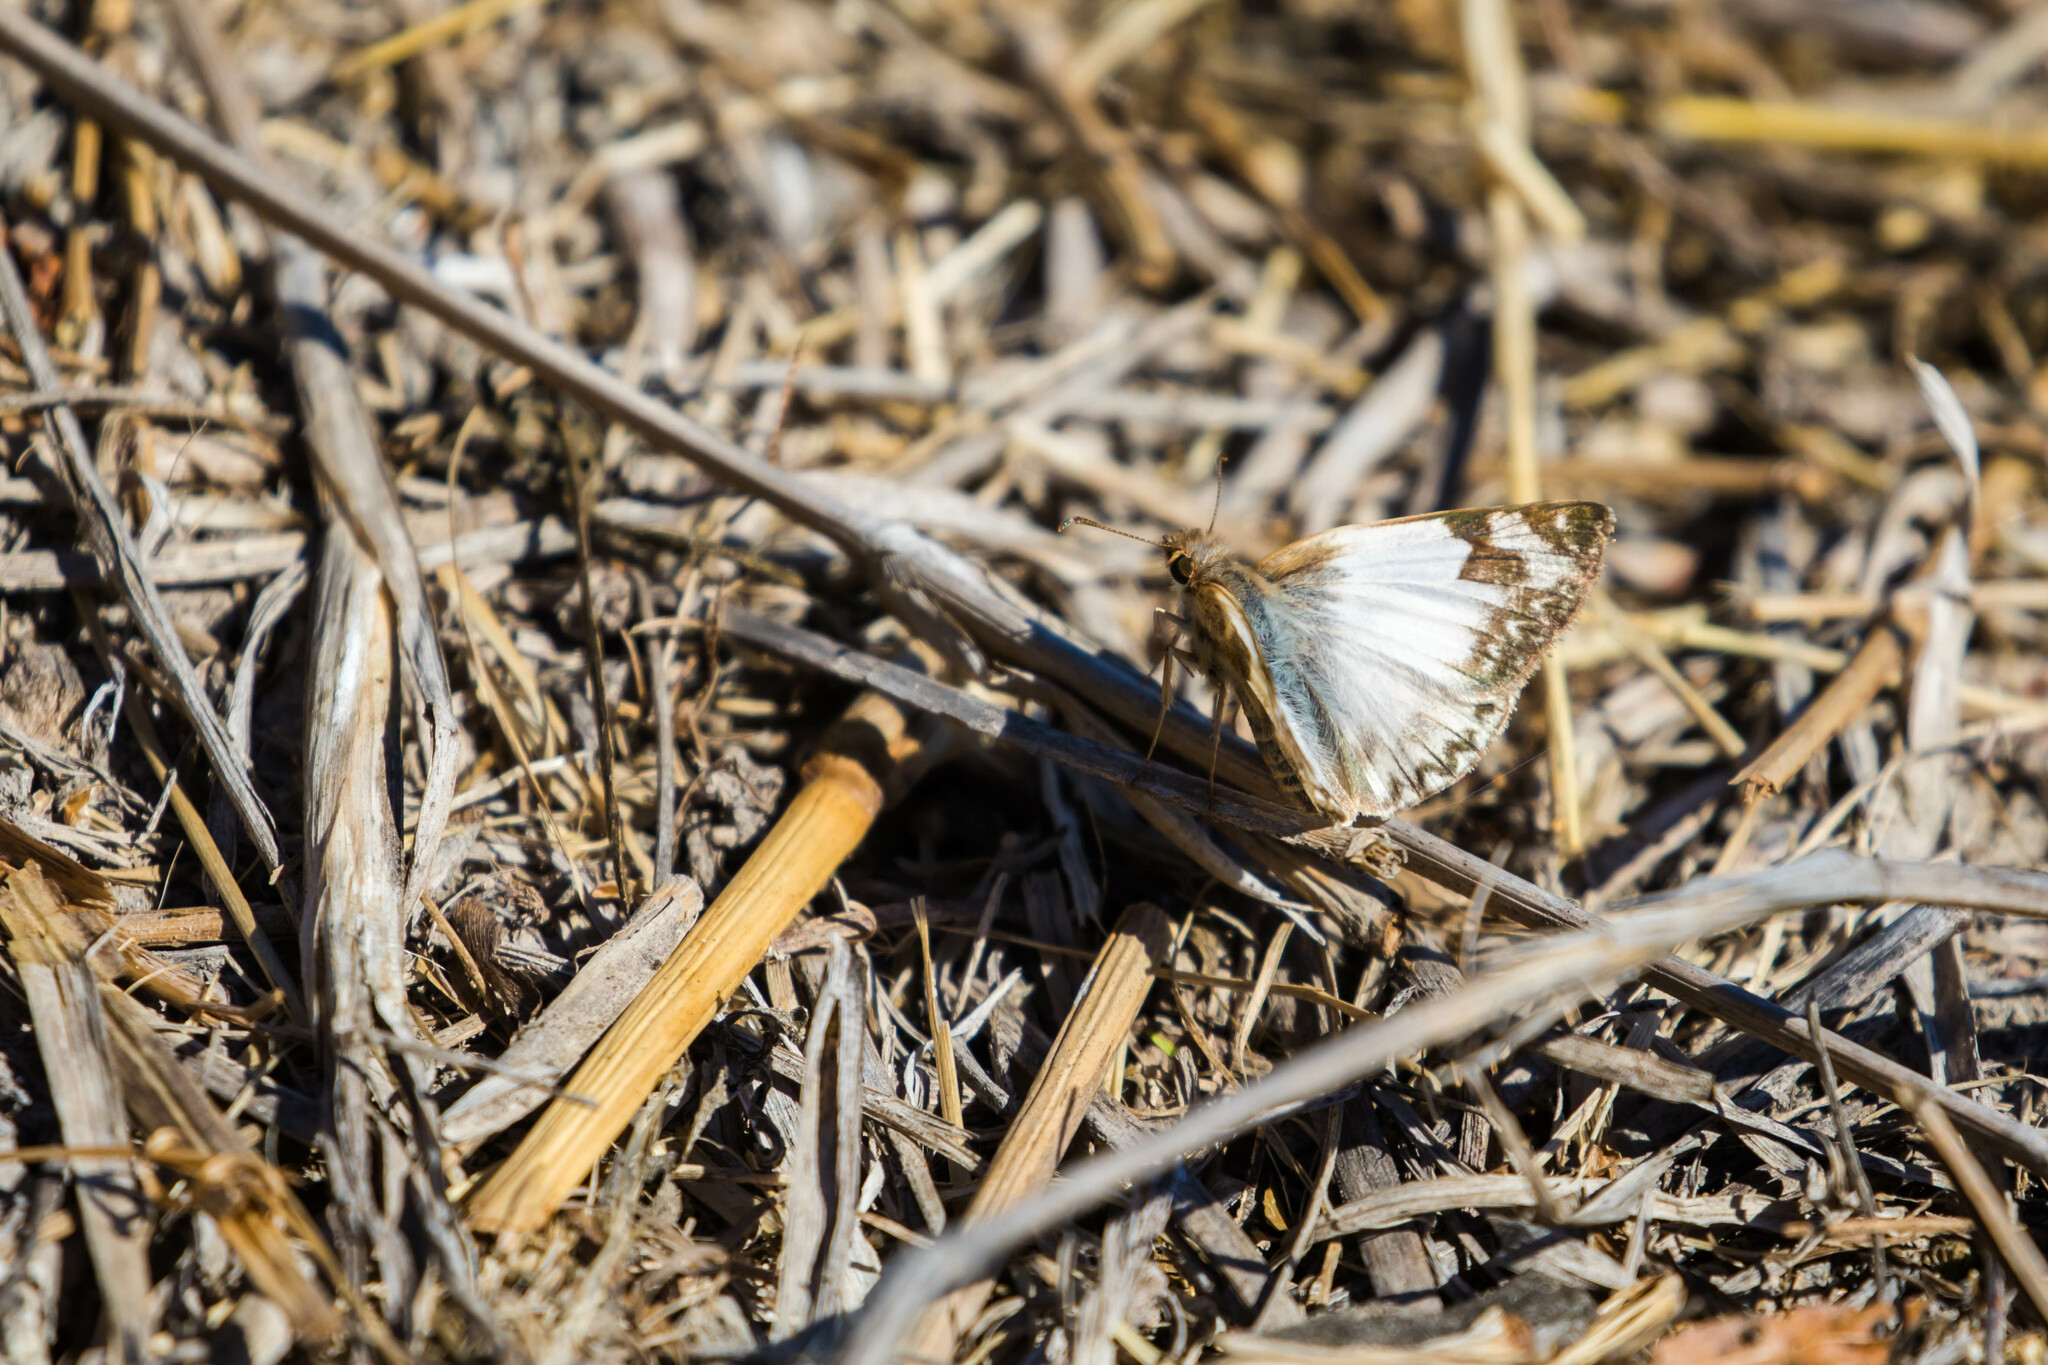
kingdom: Animalia
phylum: Arthropoda
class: Insecta
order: Lepidoptera
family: Hesperiidae
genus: Heliopetes
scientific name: Heliopetes laviana
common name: Laviana white-skipper
